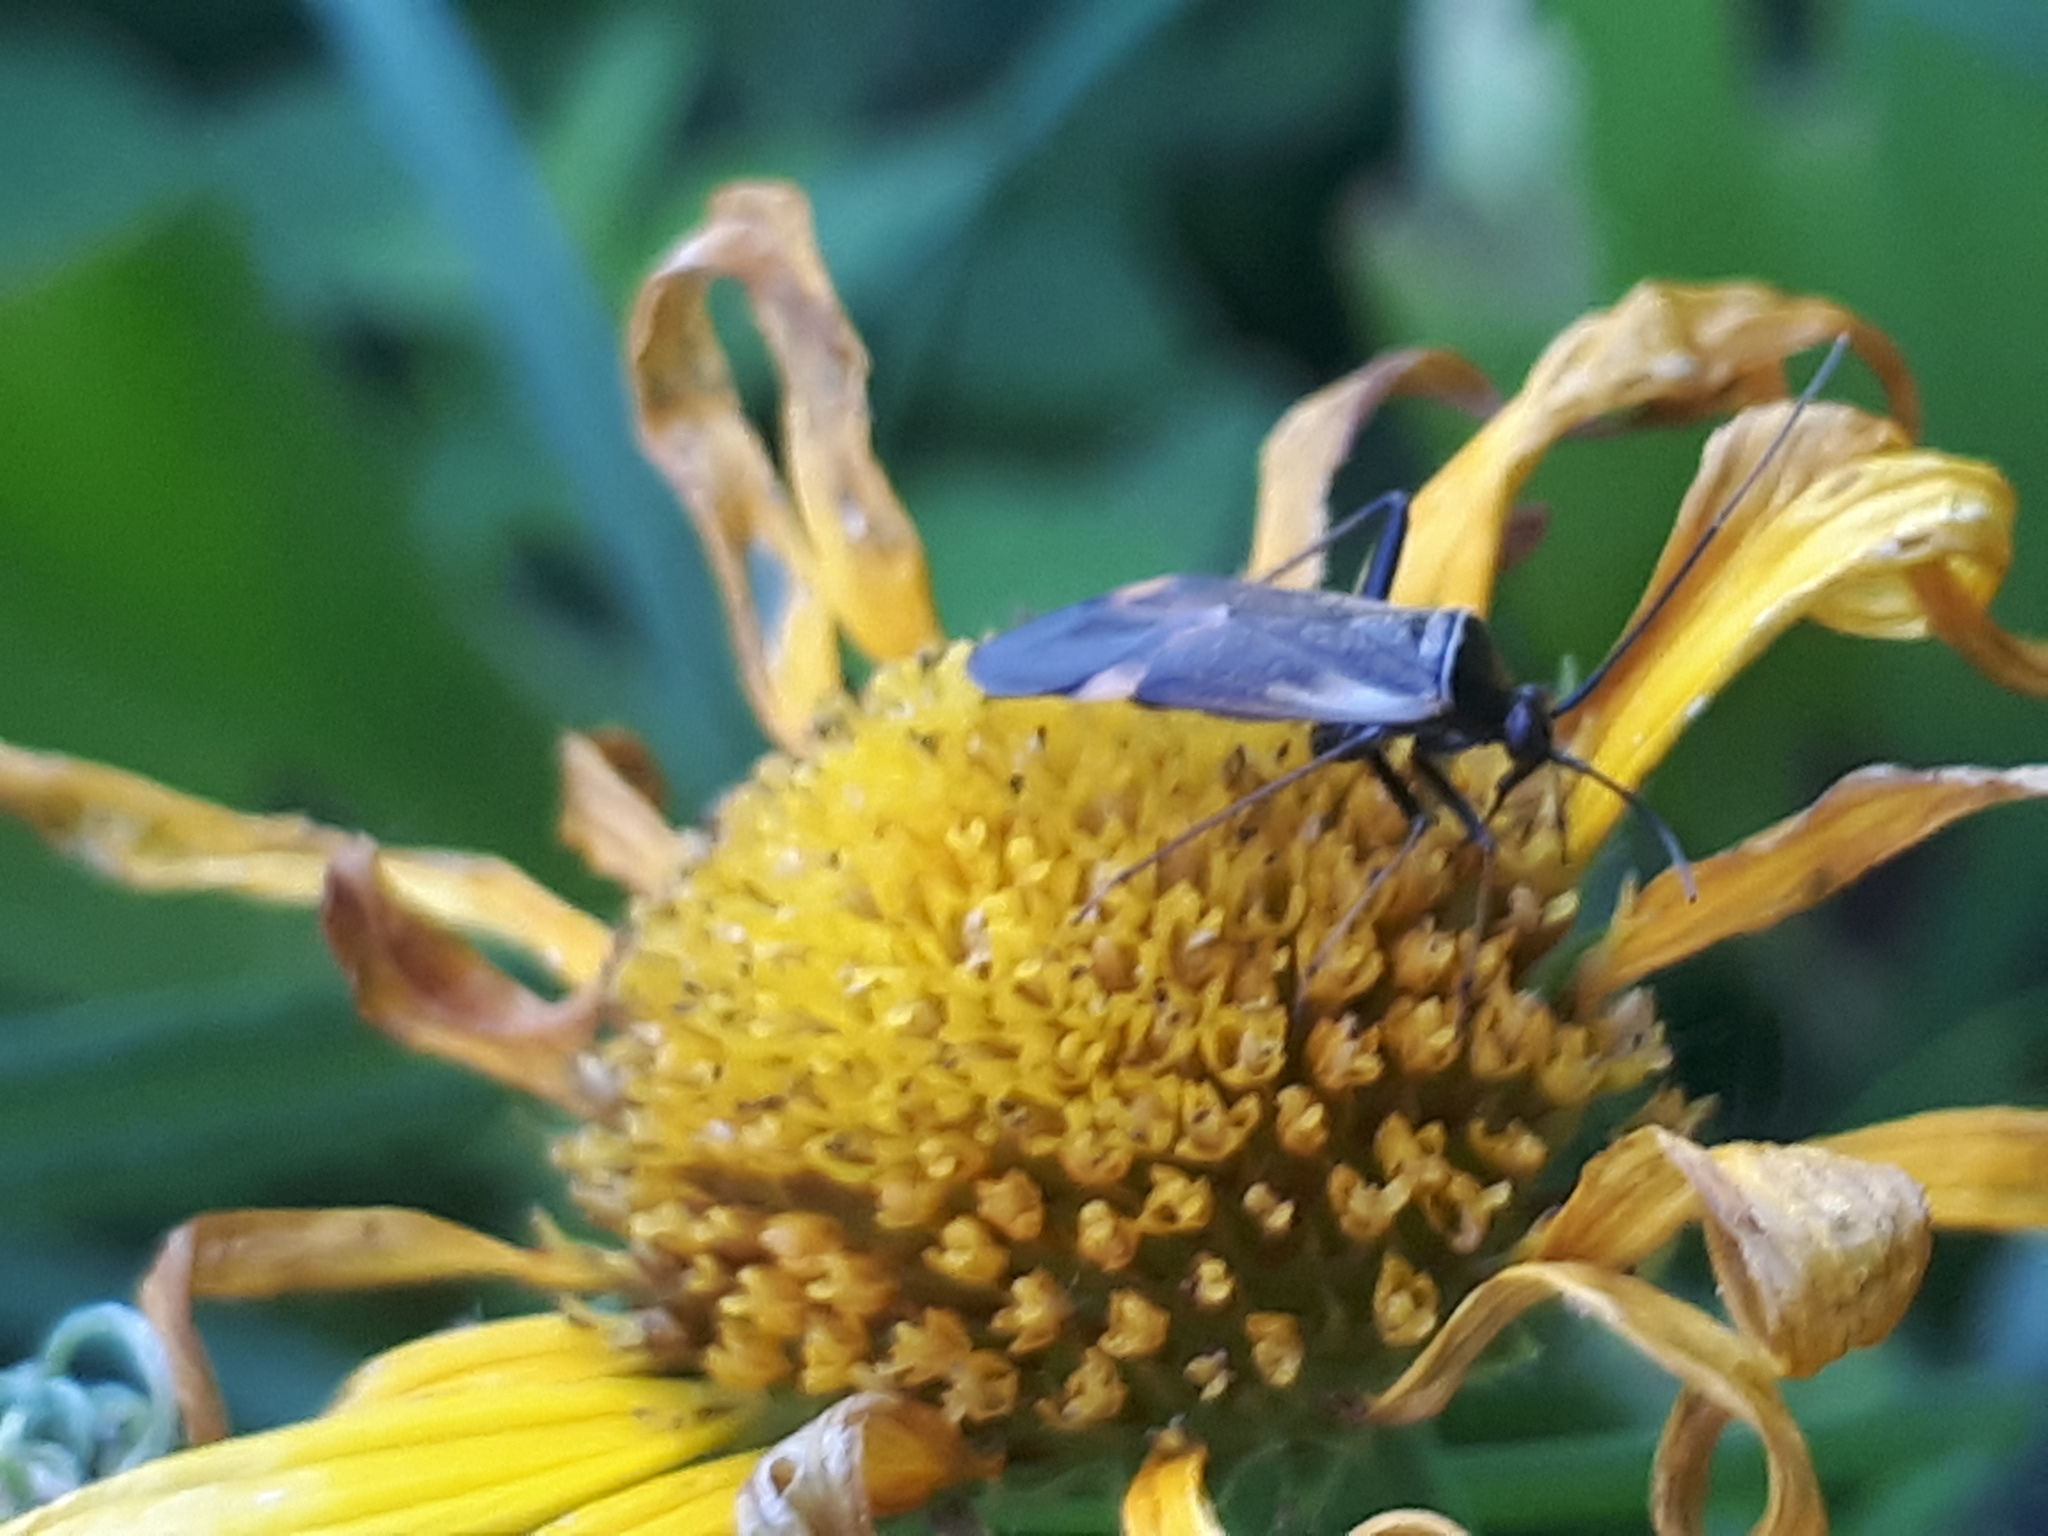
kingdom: Animalia
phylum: Arthropoda
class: Insecta
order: Hemiptera
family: Miridae
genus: Adelphocoris
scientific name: Adelphocoris seticornis
